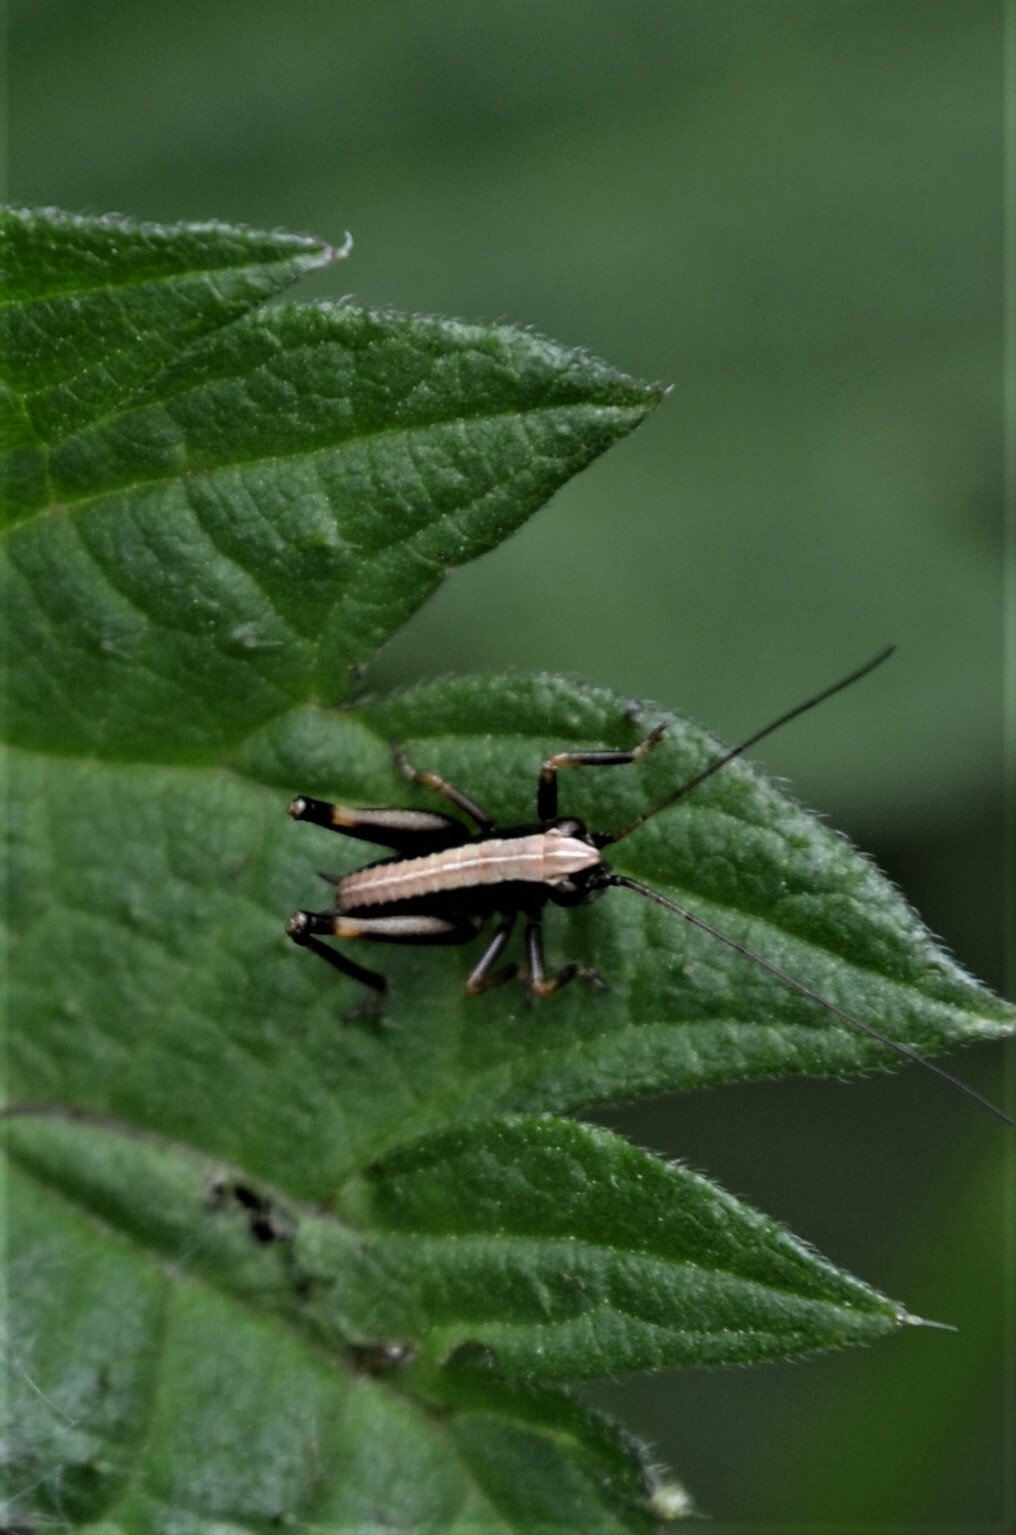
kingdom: Animalia
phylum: Arthropoda
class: Insecta
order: Orthoptera
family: Tettigoniidae
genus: Pholidoptera
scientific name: Pholidoptera griseoaptera
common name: Dark bush-cricket
